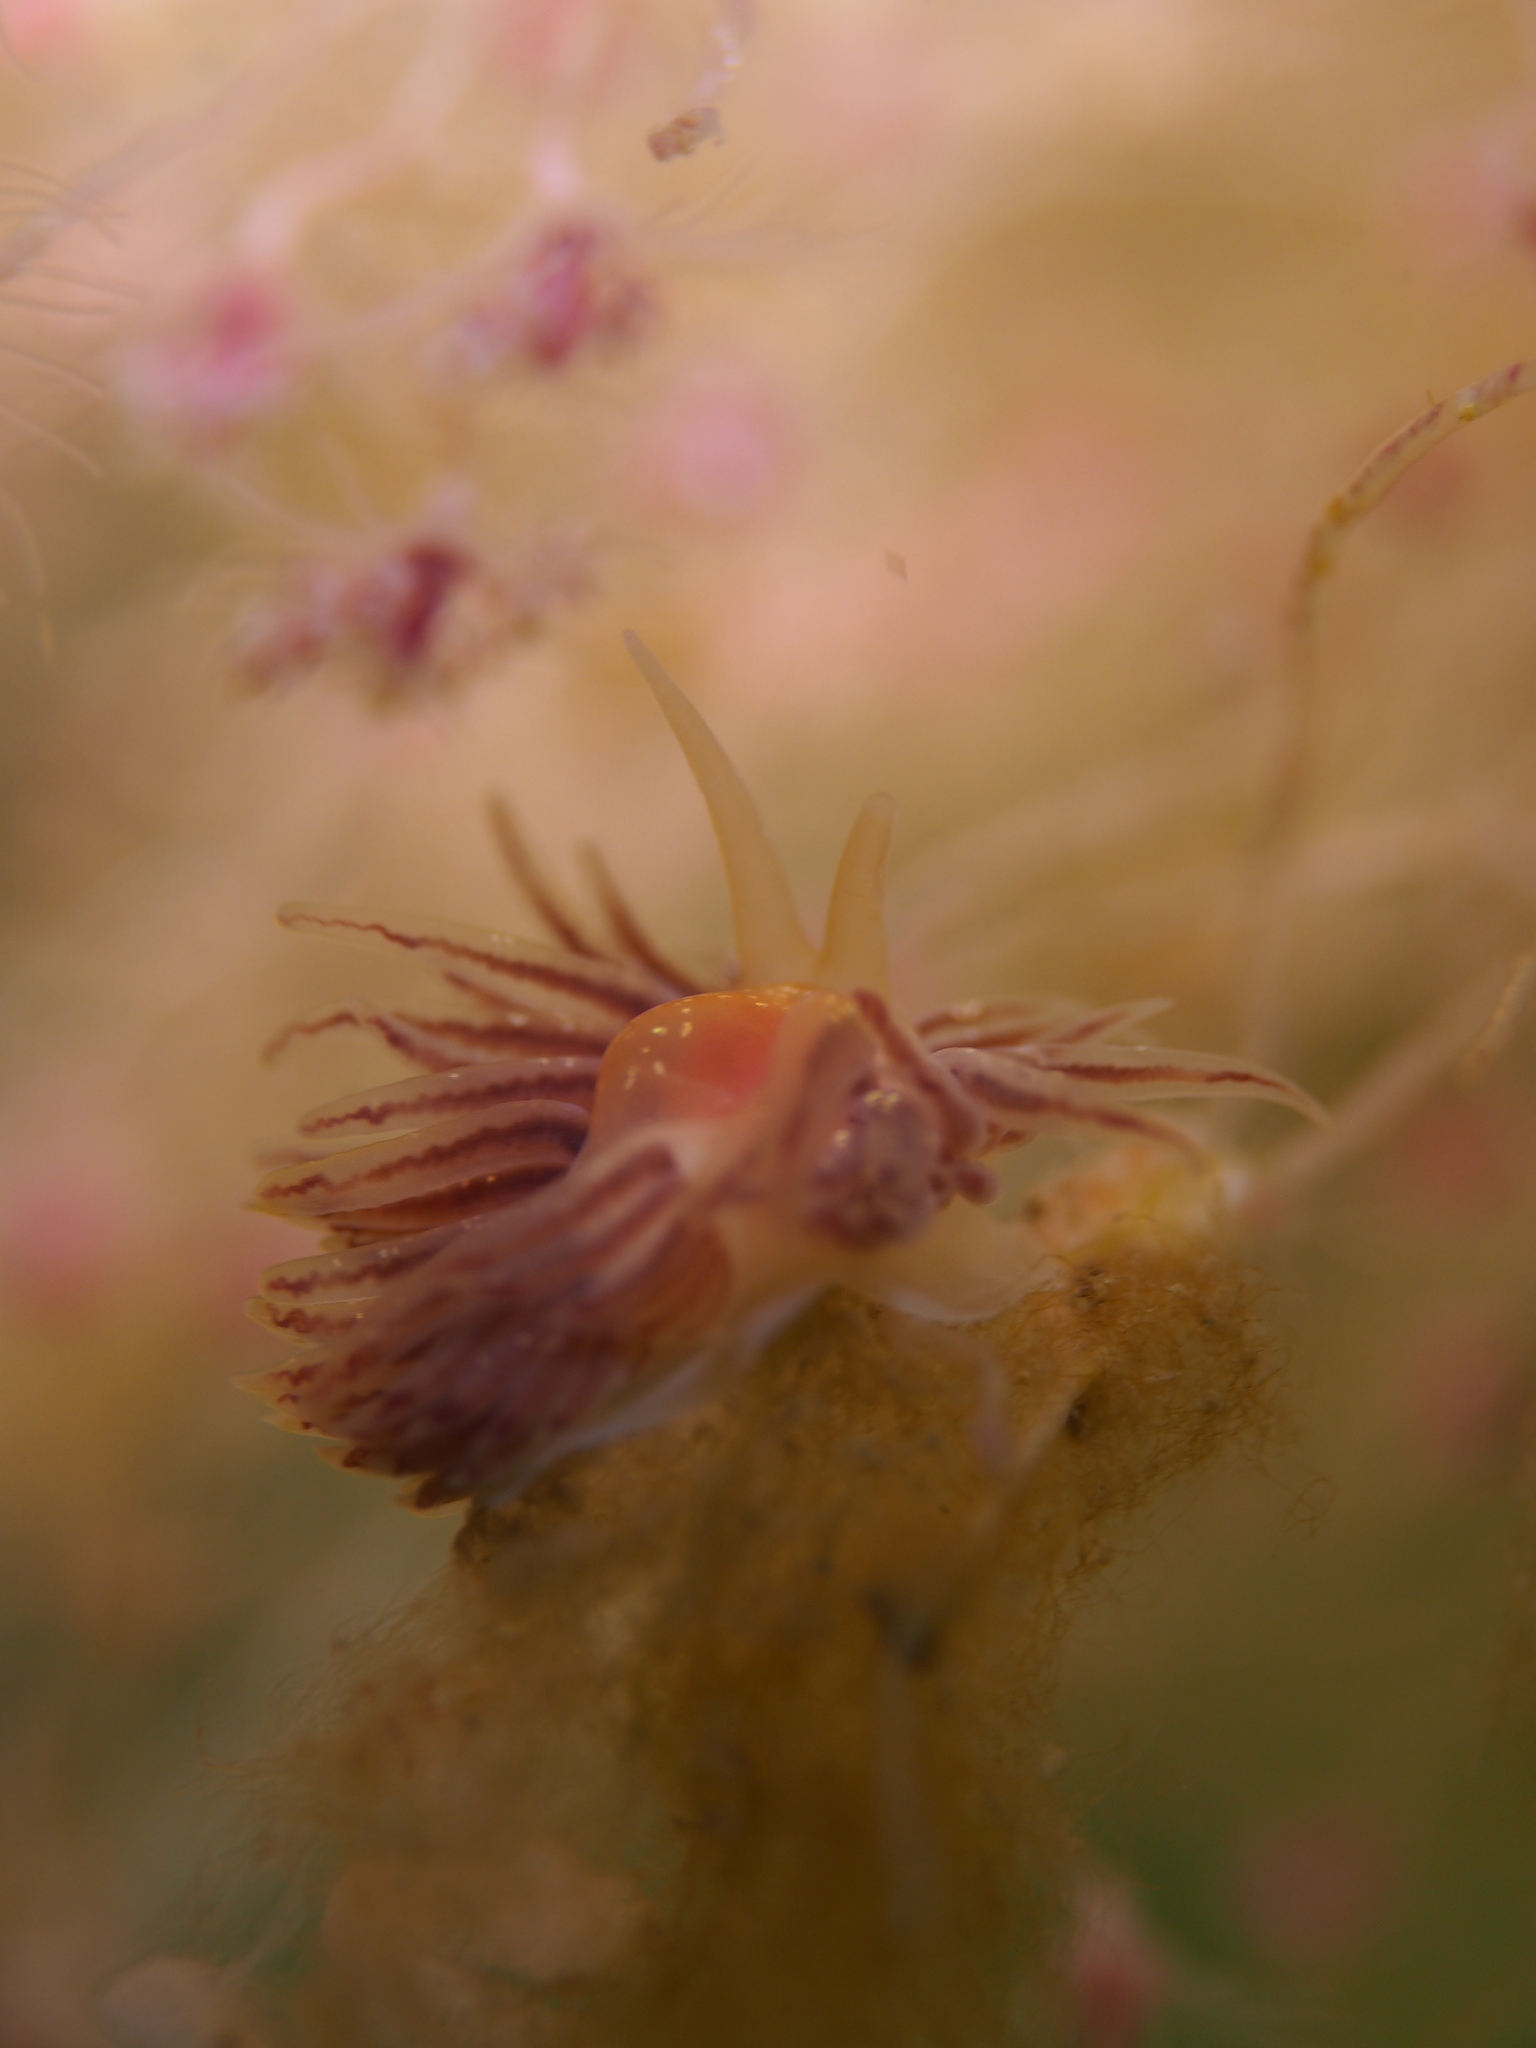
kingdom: Animalia
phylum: Mollusca
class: Gastropoda
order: Nudibranchia
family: Cumanotidae
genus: Cumanotus
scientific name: Cumanotus beaumonti
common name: Polyp aeolis
